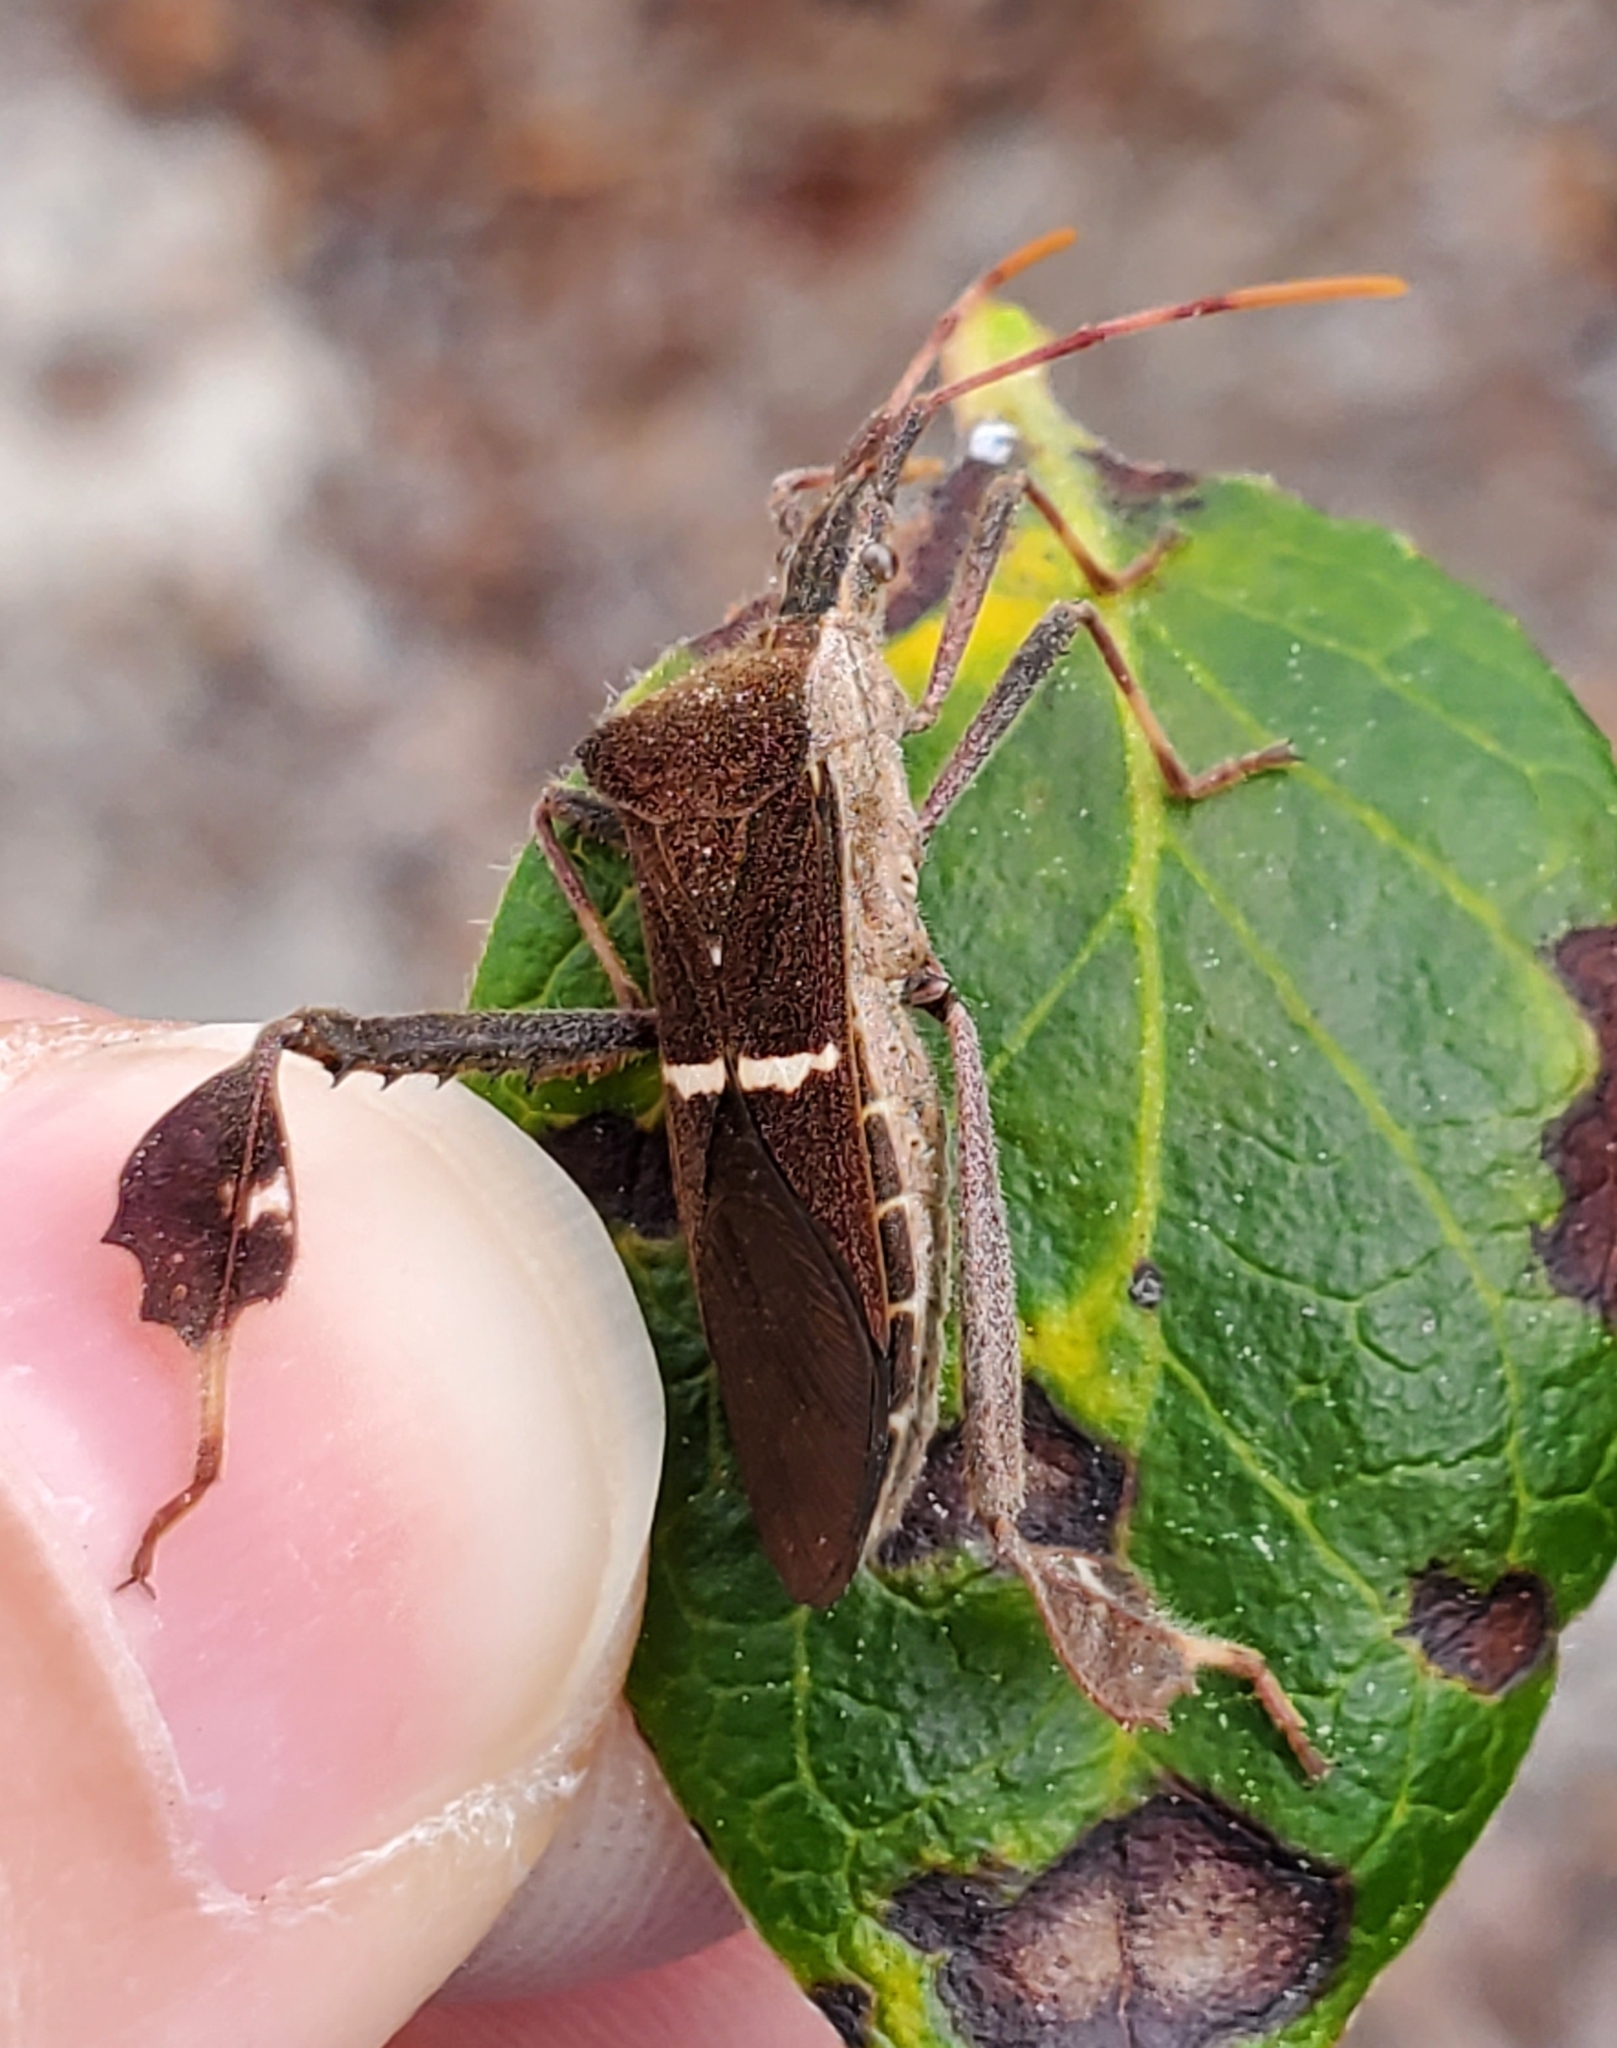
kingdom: Animalia
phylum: Arthropoda
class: Insecta
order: Hemiptera
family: Coreidae
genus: Leptoglossus
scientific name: Leptoglossus phyllopus
